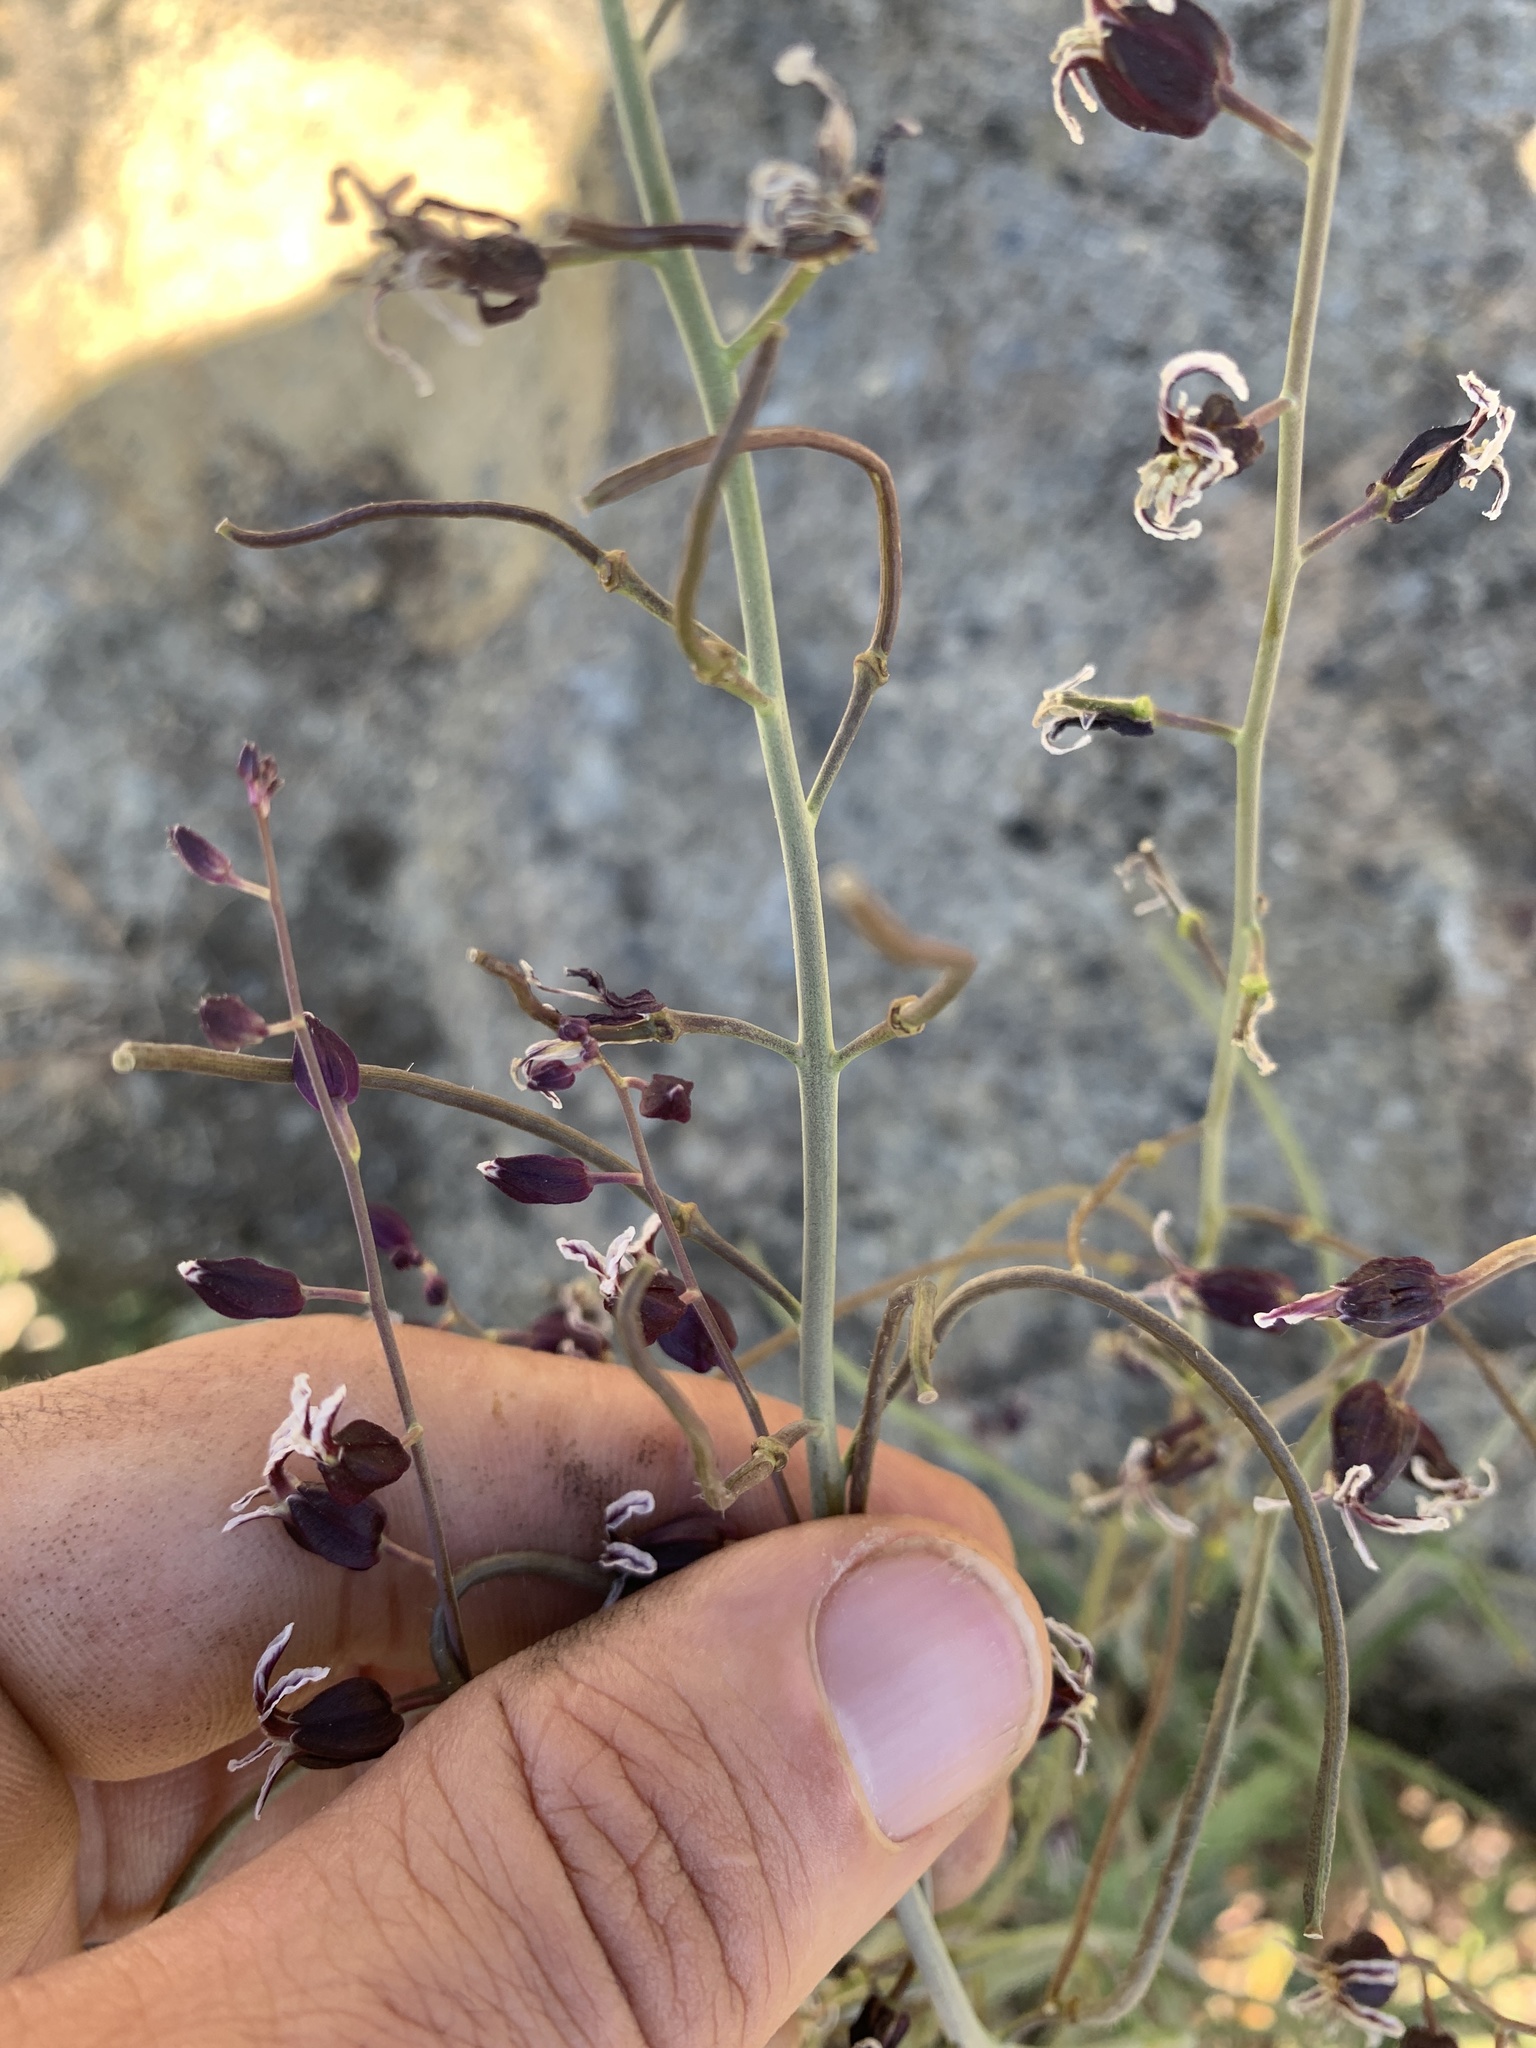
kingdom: Plantae
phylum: Tracheophyta
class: Magnoliopsida
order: Brassicales
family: Brassicaceae
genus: Streptanthus
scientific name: Streptanthus glandulosus
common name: Jewel-flower
